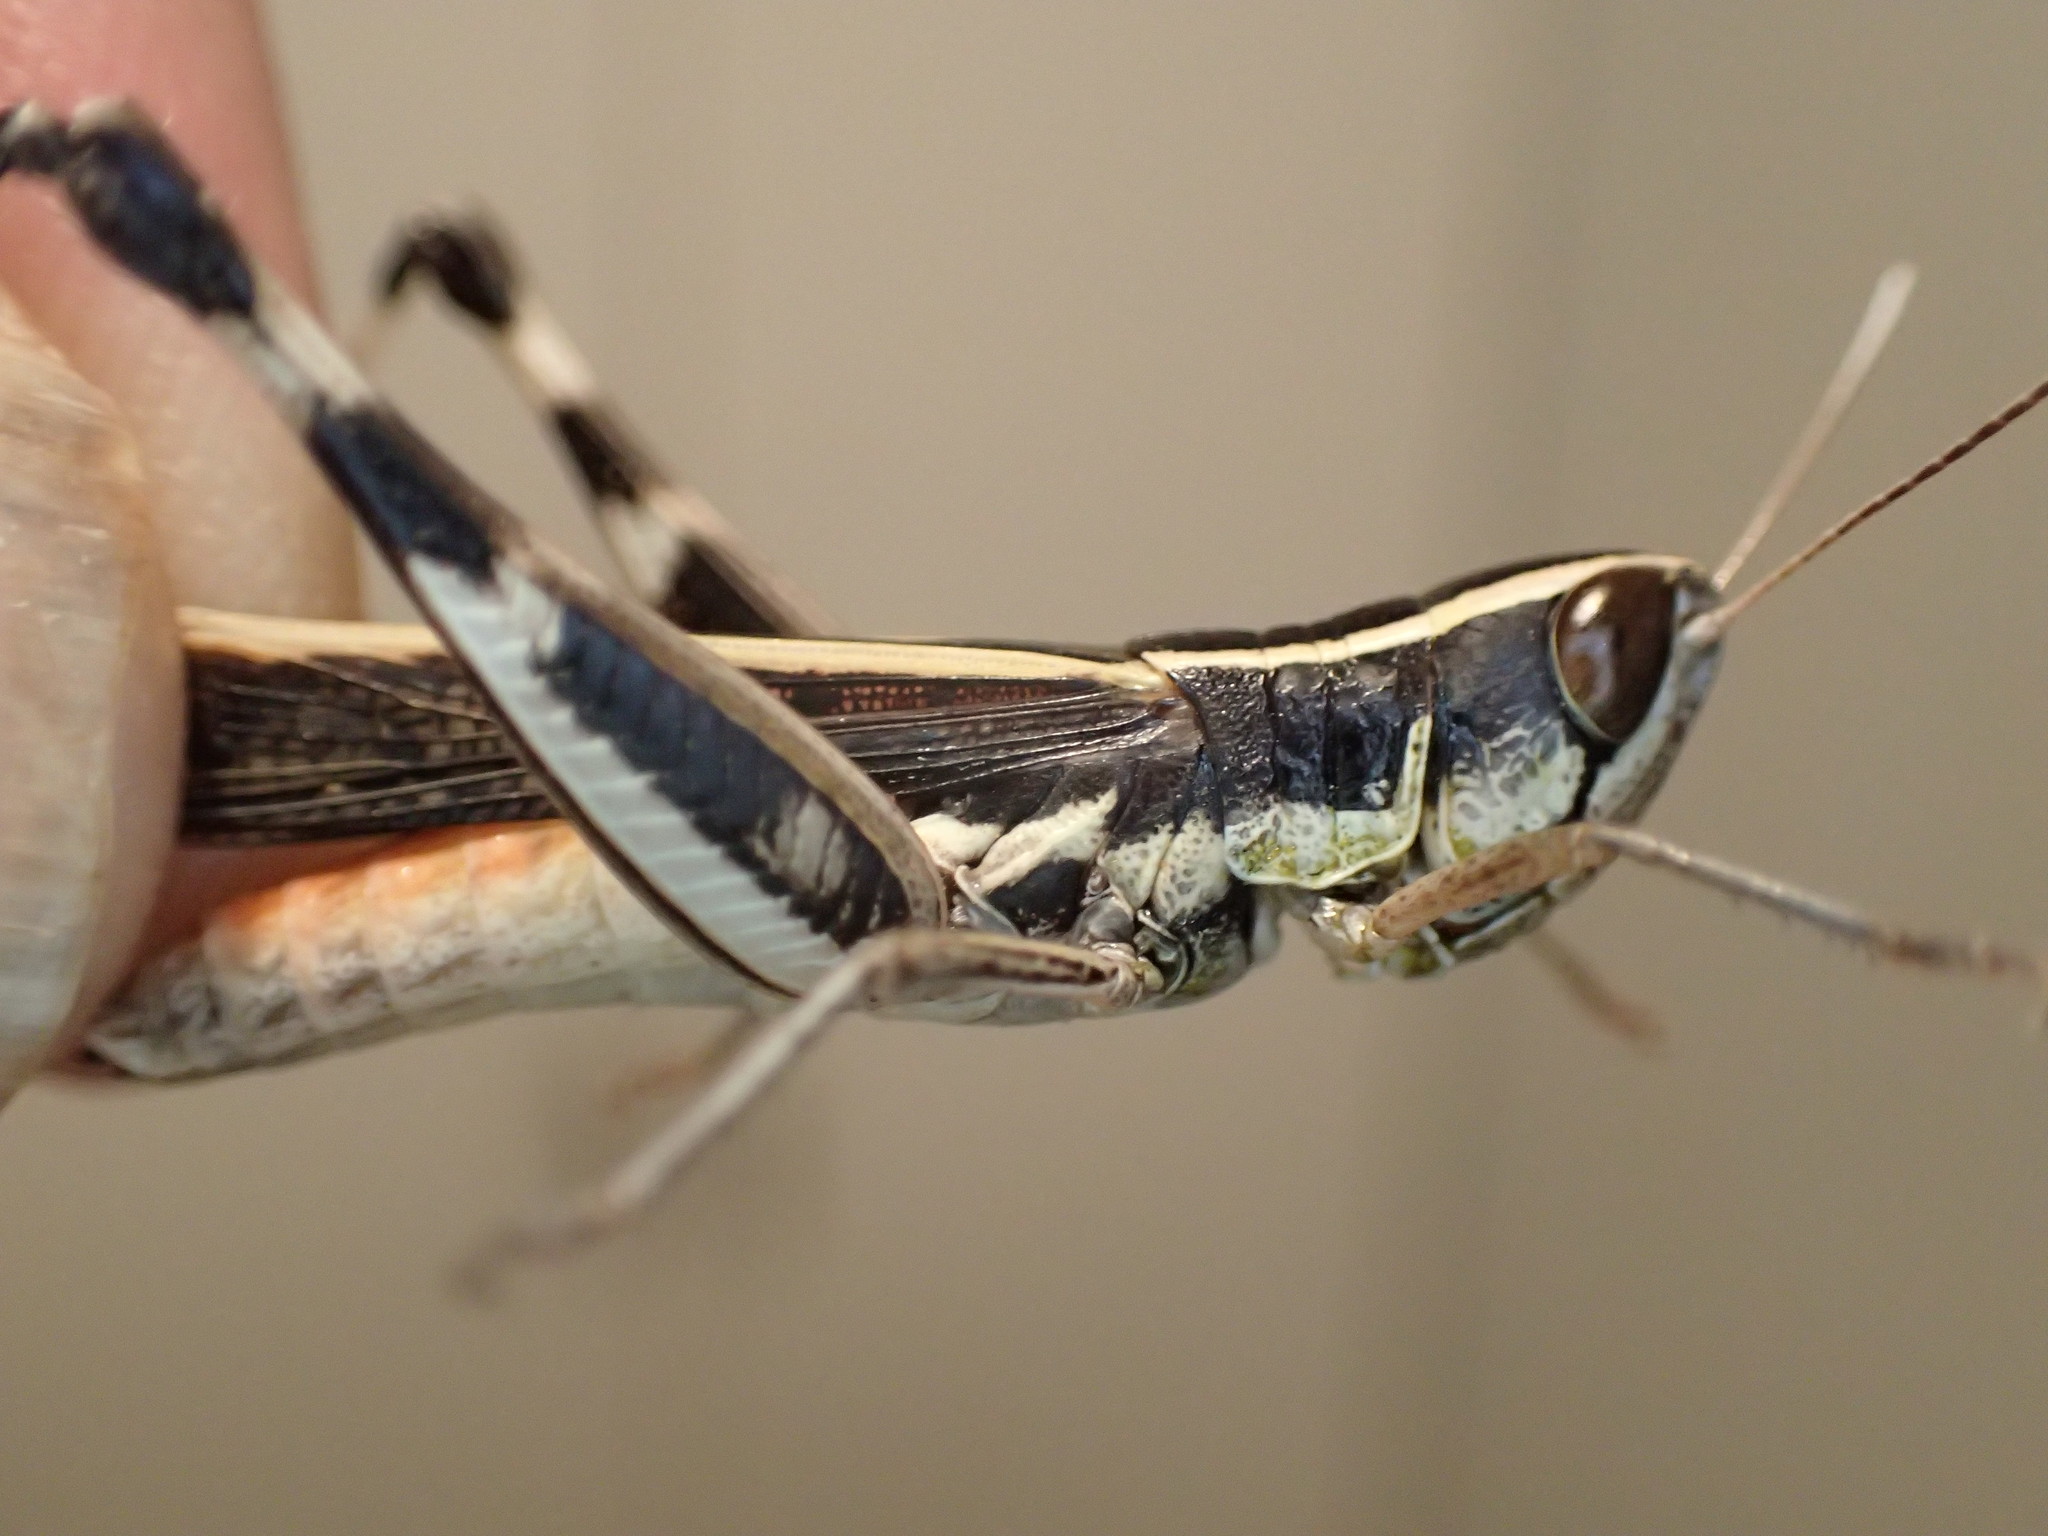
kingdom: Animalia
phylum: Arthropoda
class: Insecta
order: Orthoptera
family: Acrididae
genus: Macrotona
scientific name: Macrotona
